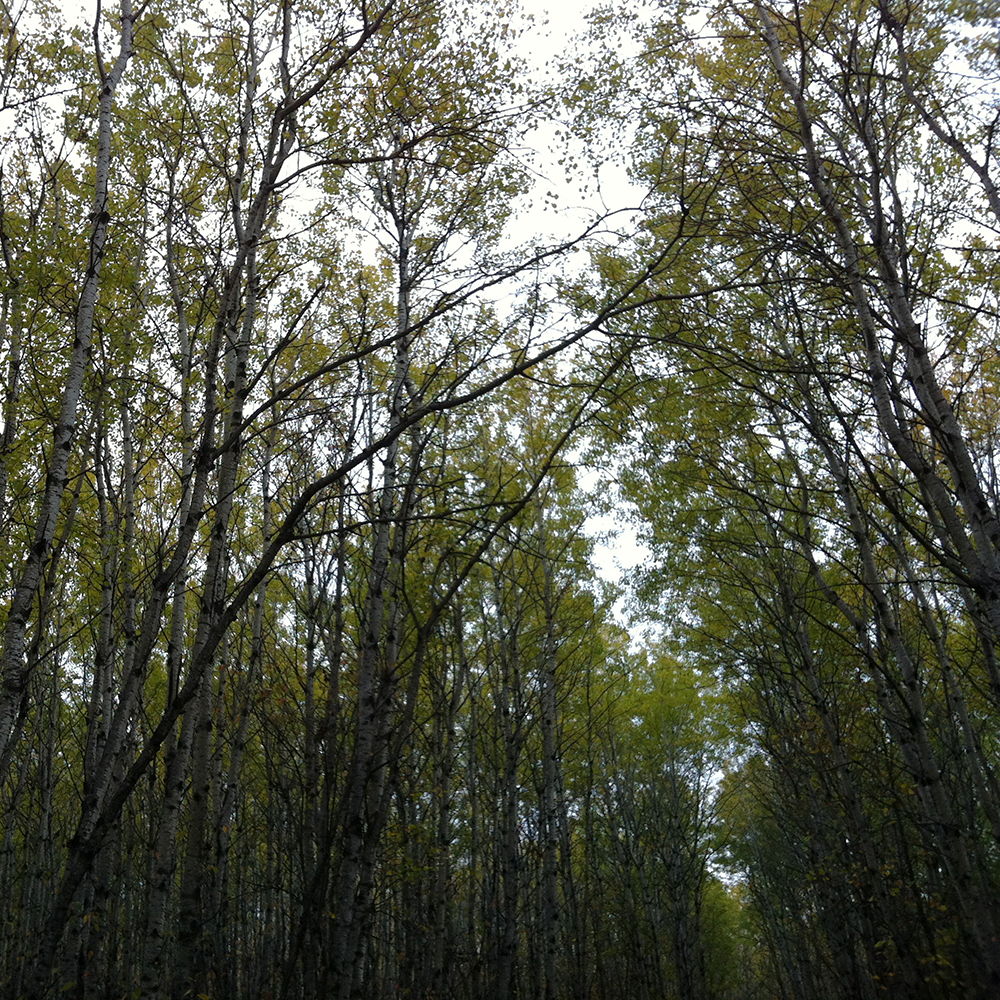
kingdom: Plantae
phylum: Tracheophyta
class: Magnoliopsida
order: Malpighiales
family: Salicaceae
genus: Populus
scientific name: Populus tremuloides
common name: Quaking aspen
